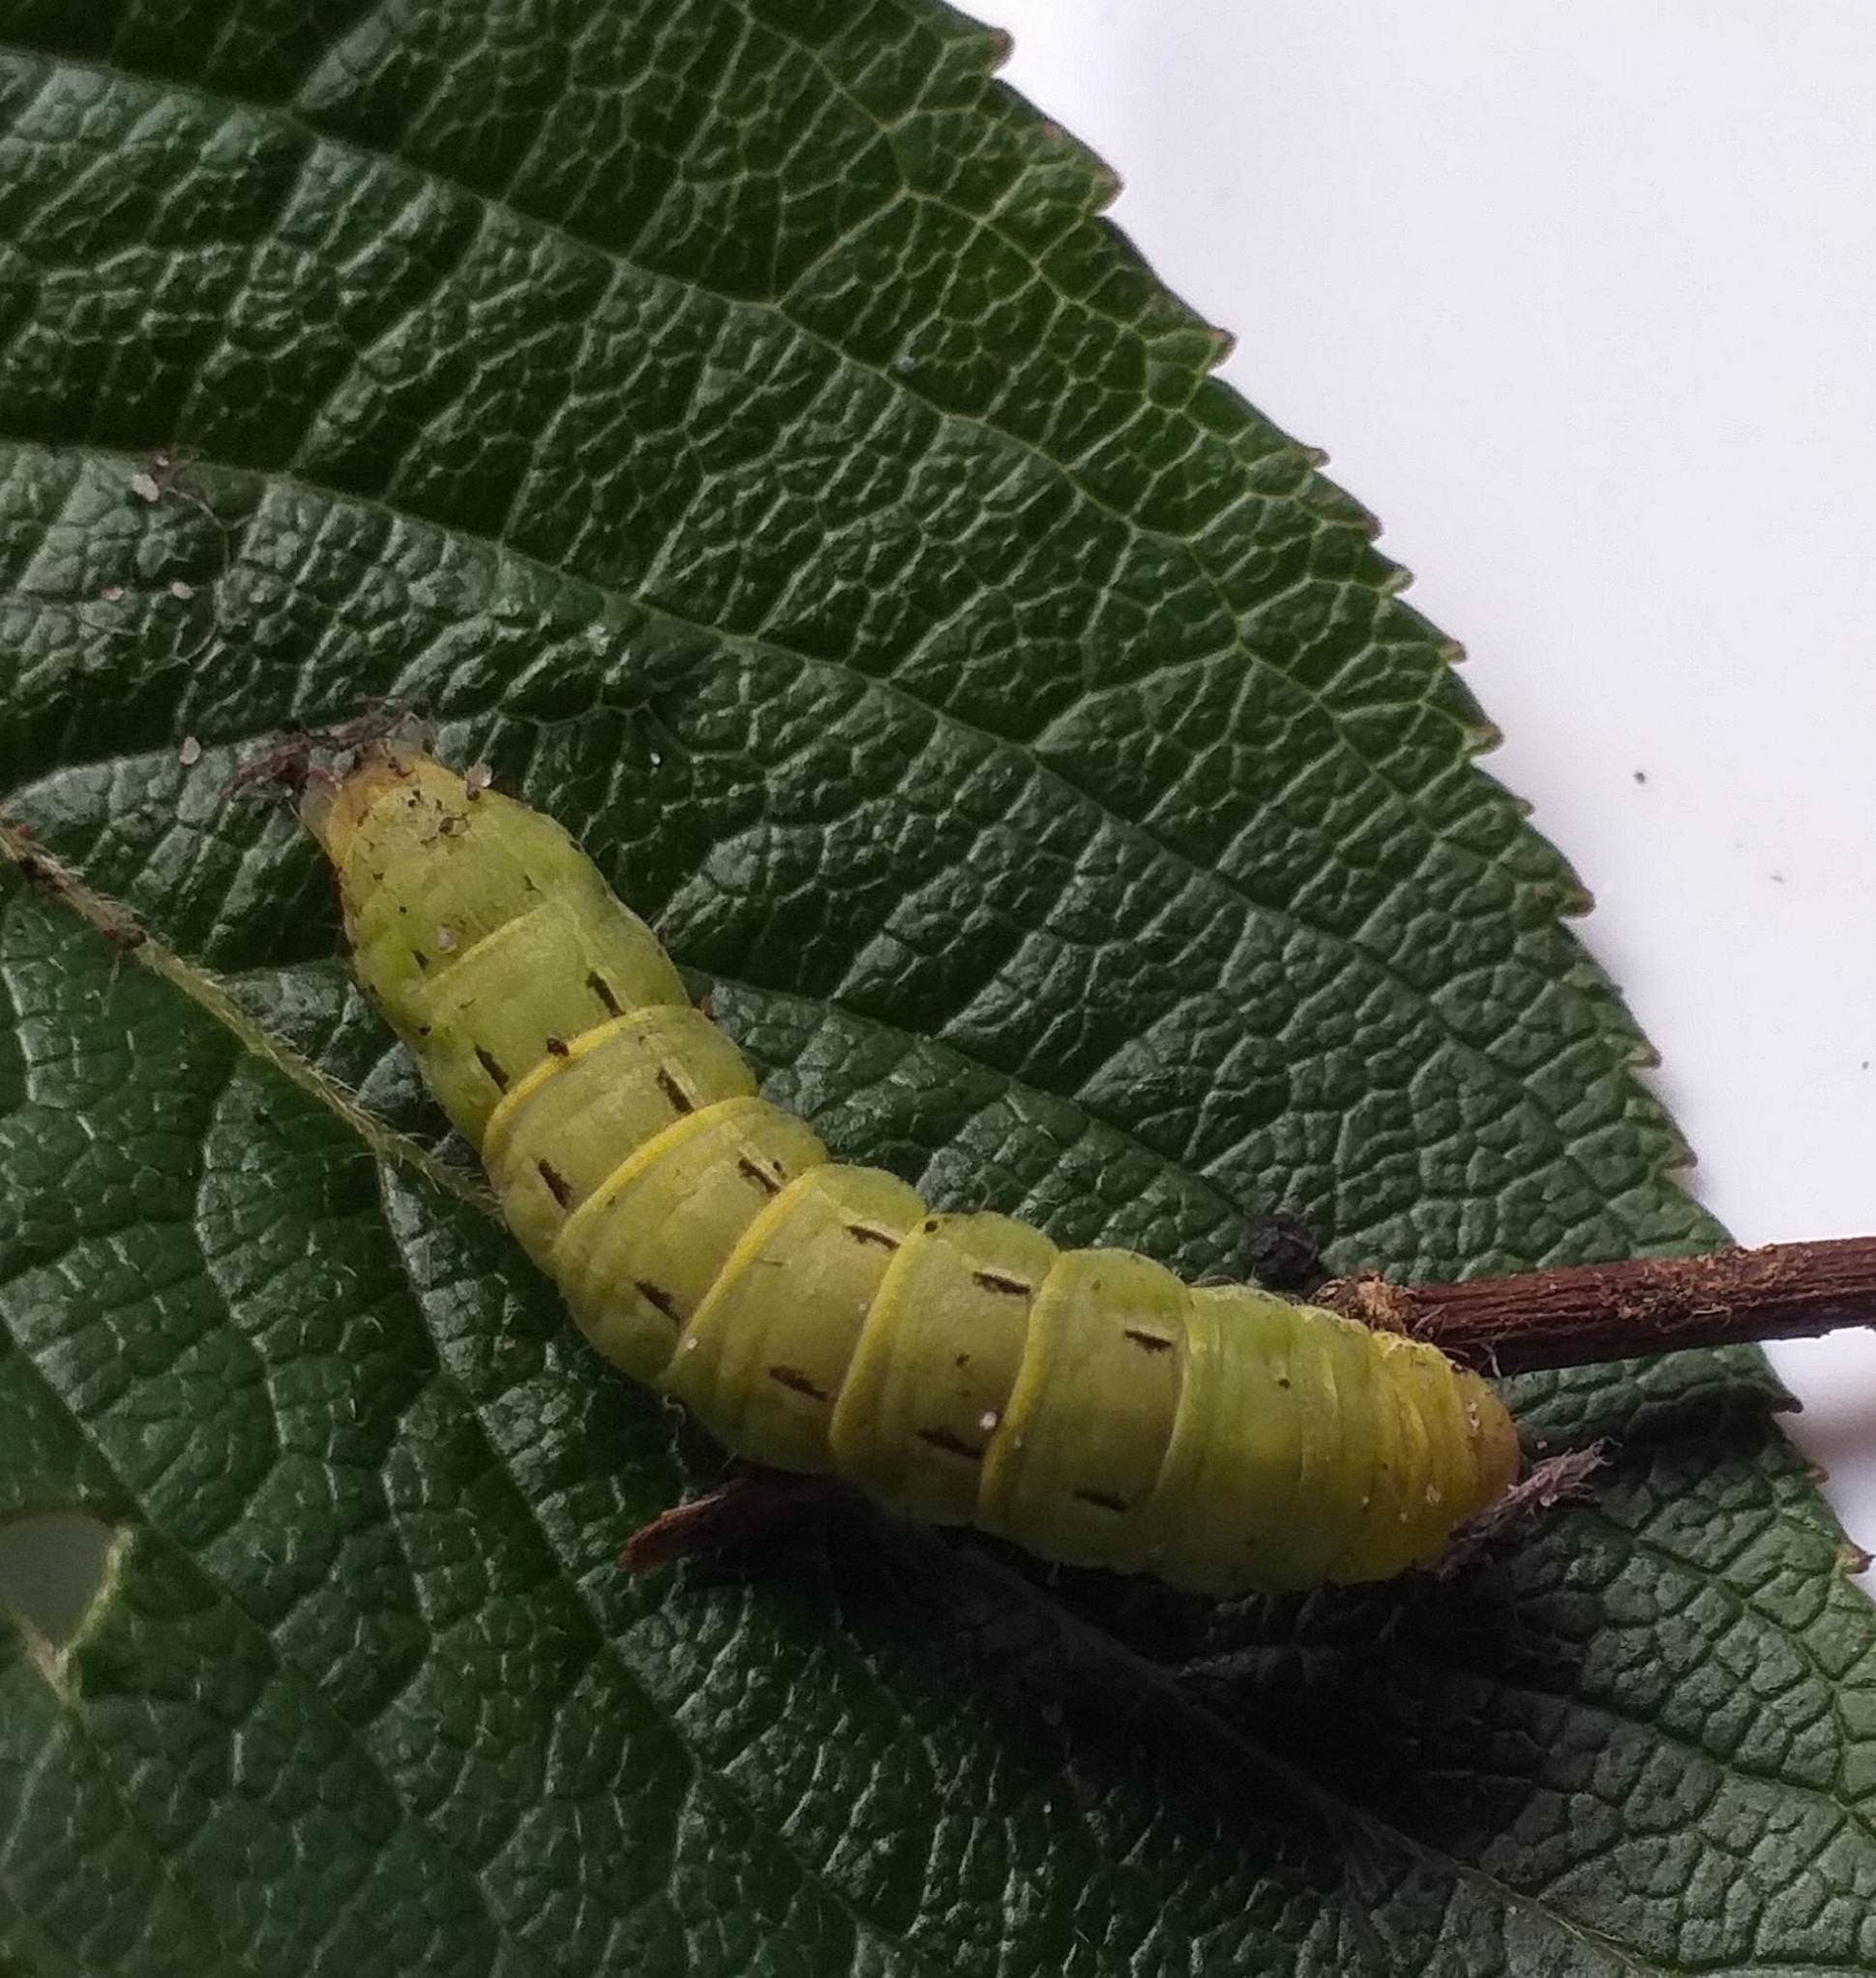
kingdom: Animalia
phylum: Arthropoda
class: Insecta
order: Lepidoptera
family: Noctuidae
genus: Noctua
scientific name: Noctua pronuba
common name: Large yellow underwing
